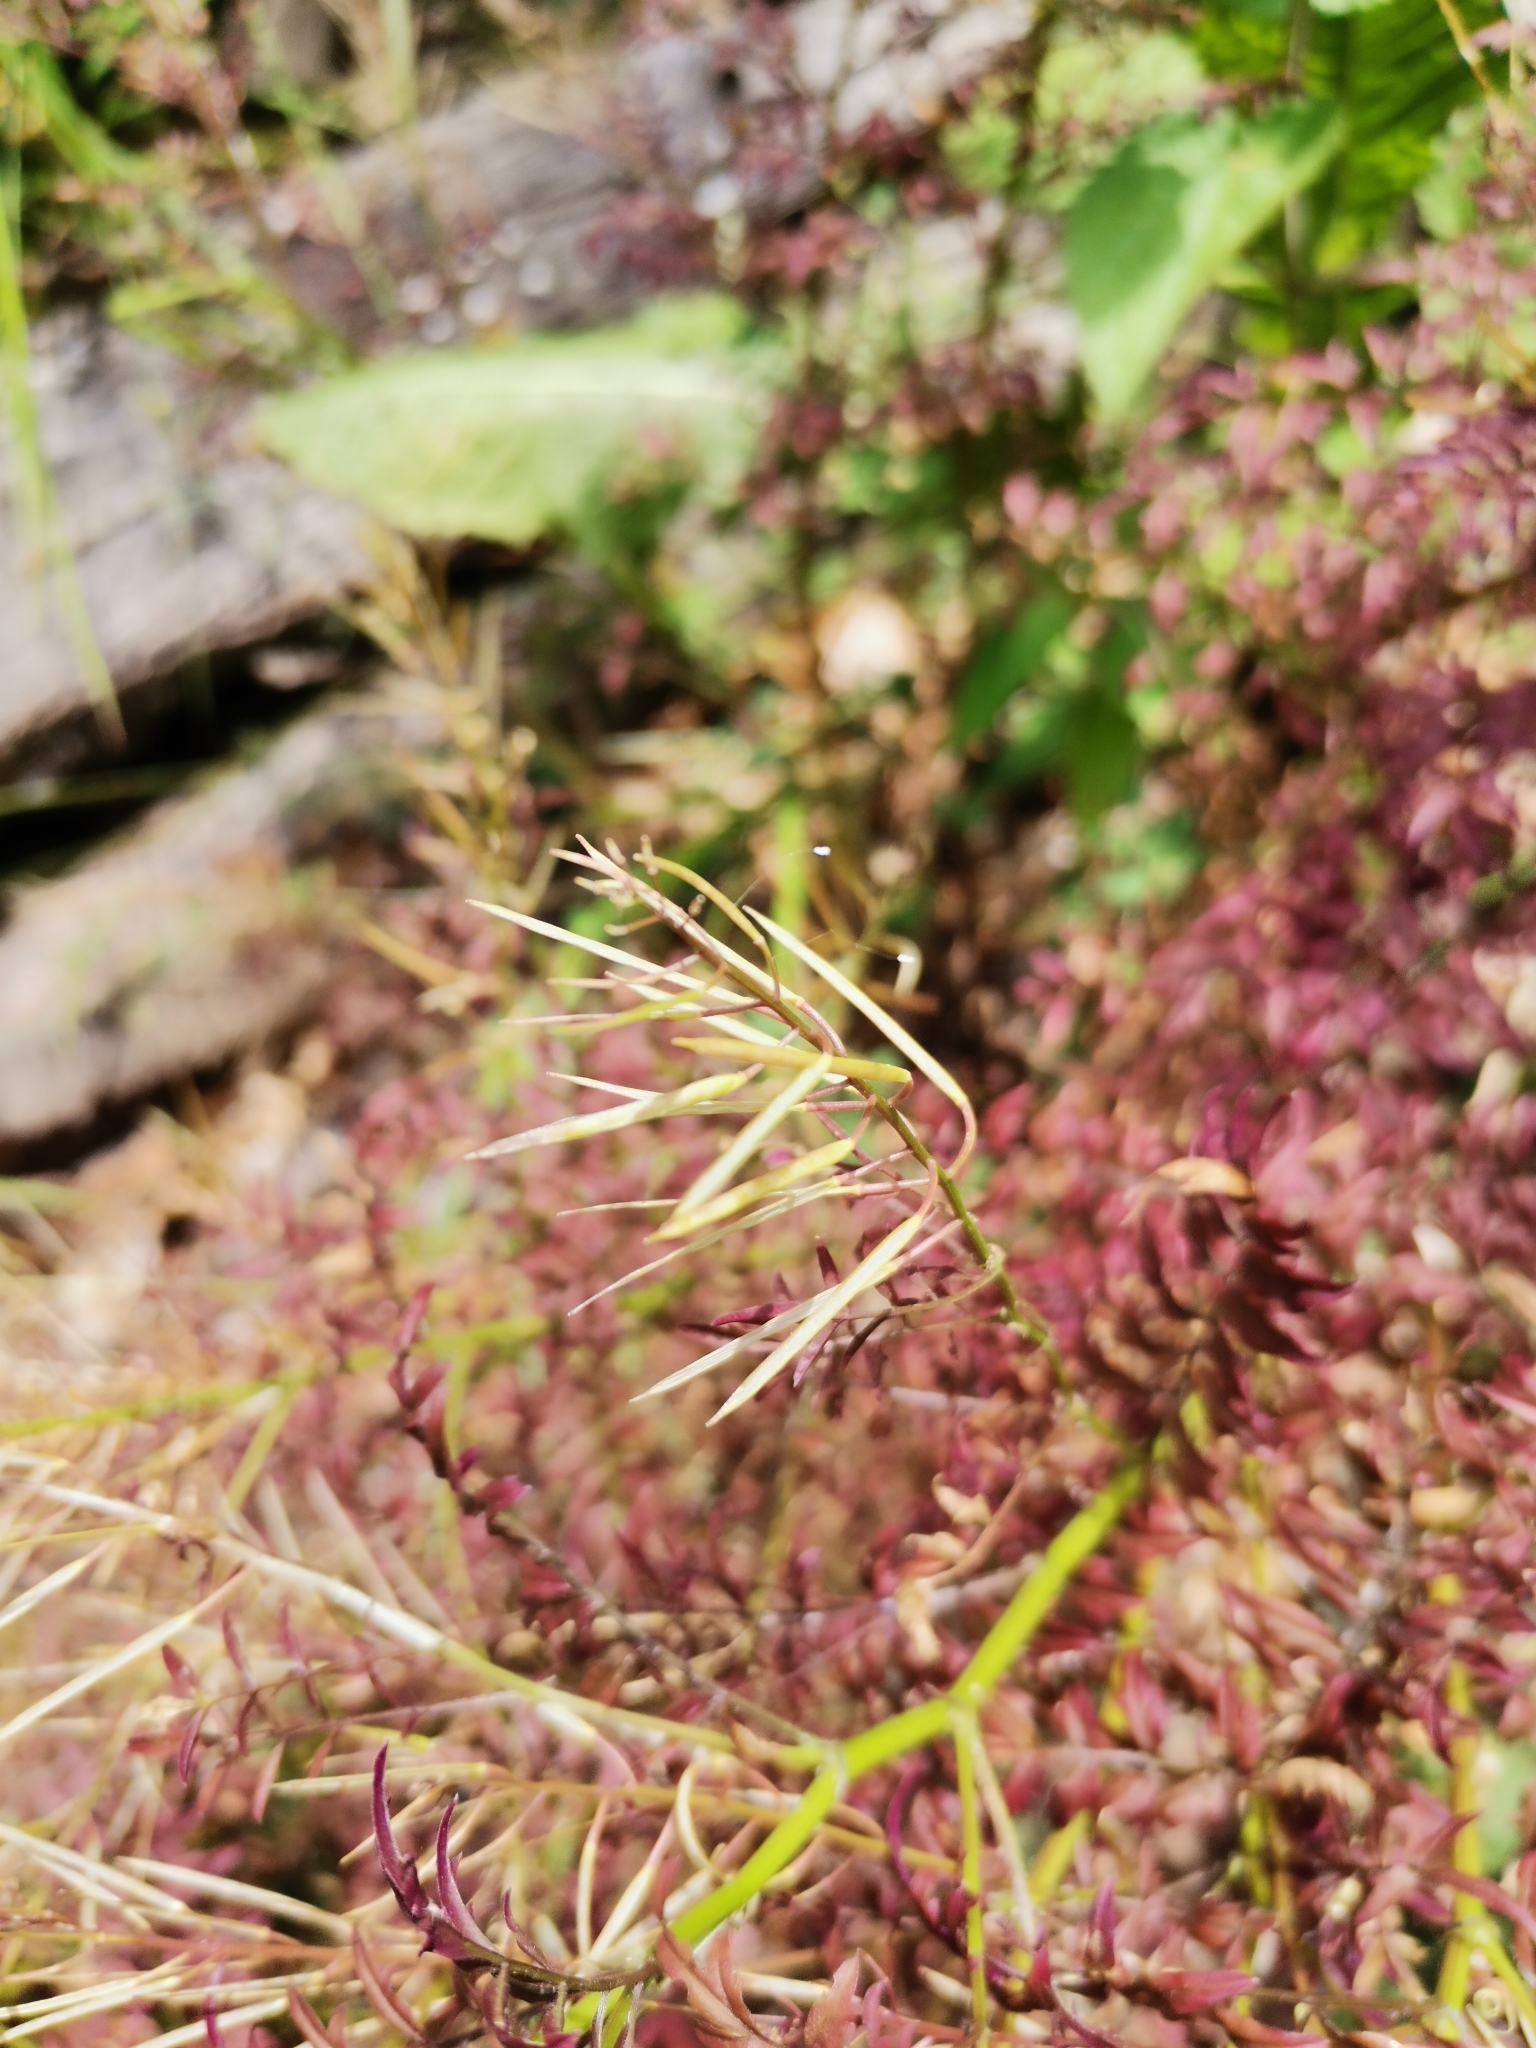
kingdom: Plantae
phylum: Tracheophyta
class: Magnoliopsida
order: Brassicales
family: Brassicaceae
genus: Cardamine
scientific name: Cardamine impatiens
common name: Narrow-leaved bitter-cress
